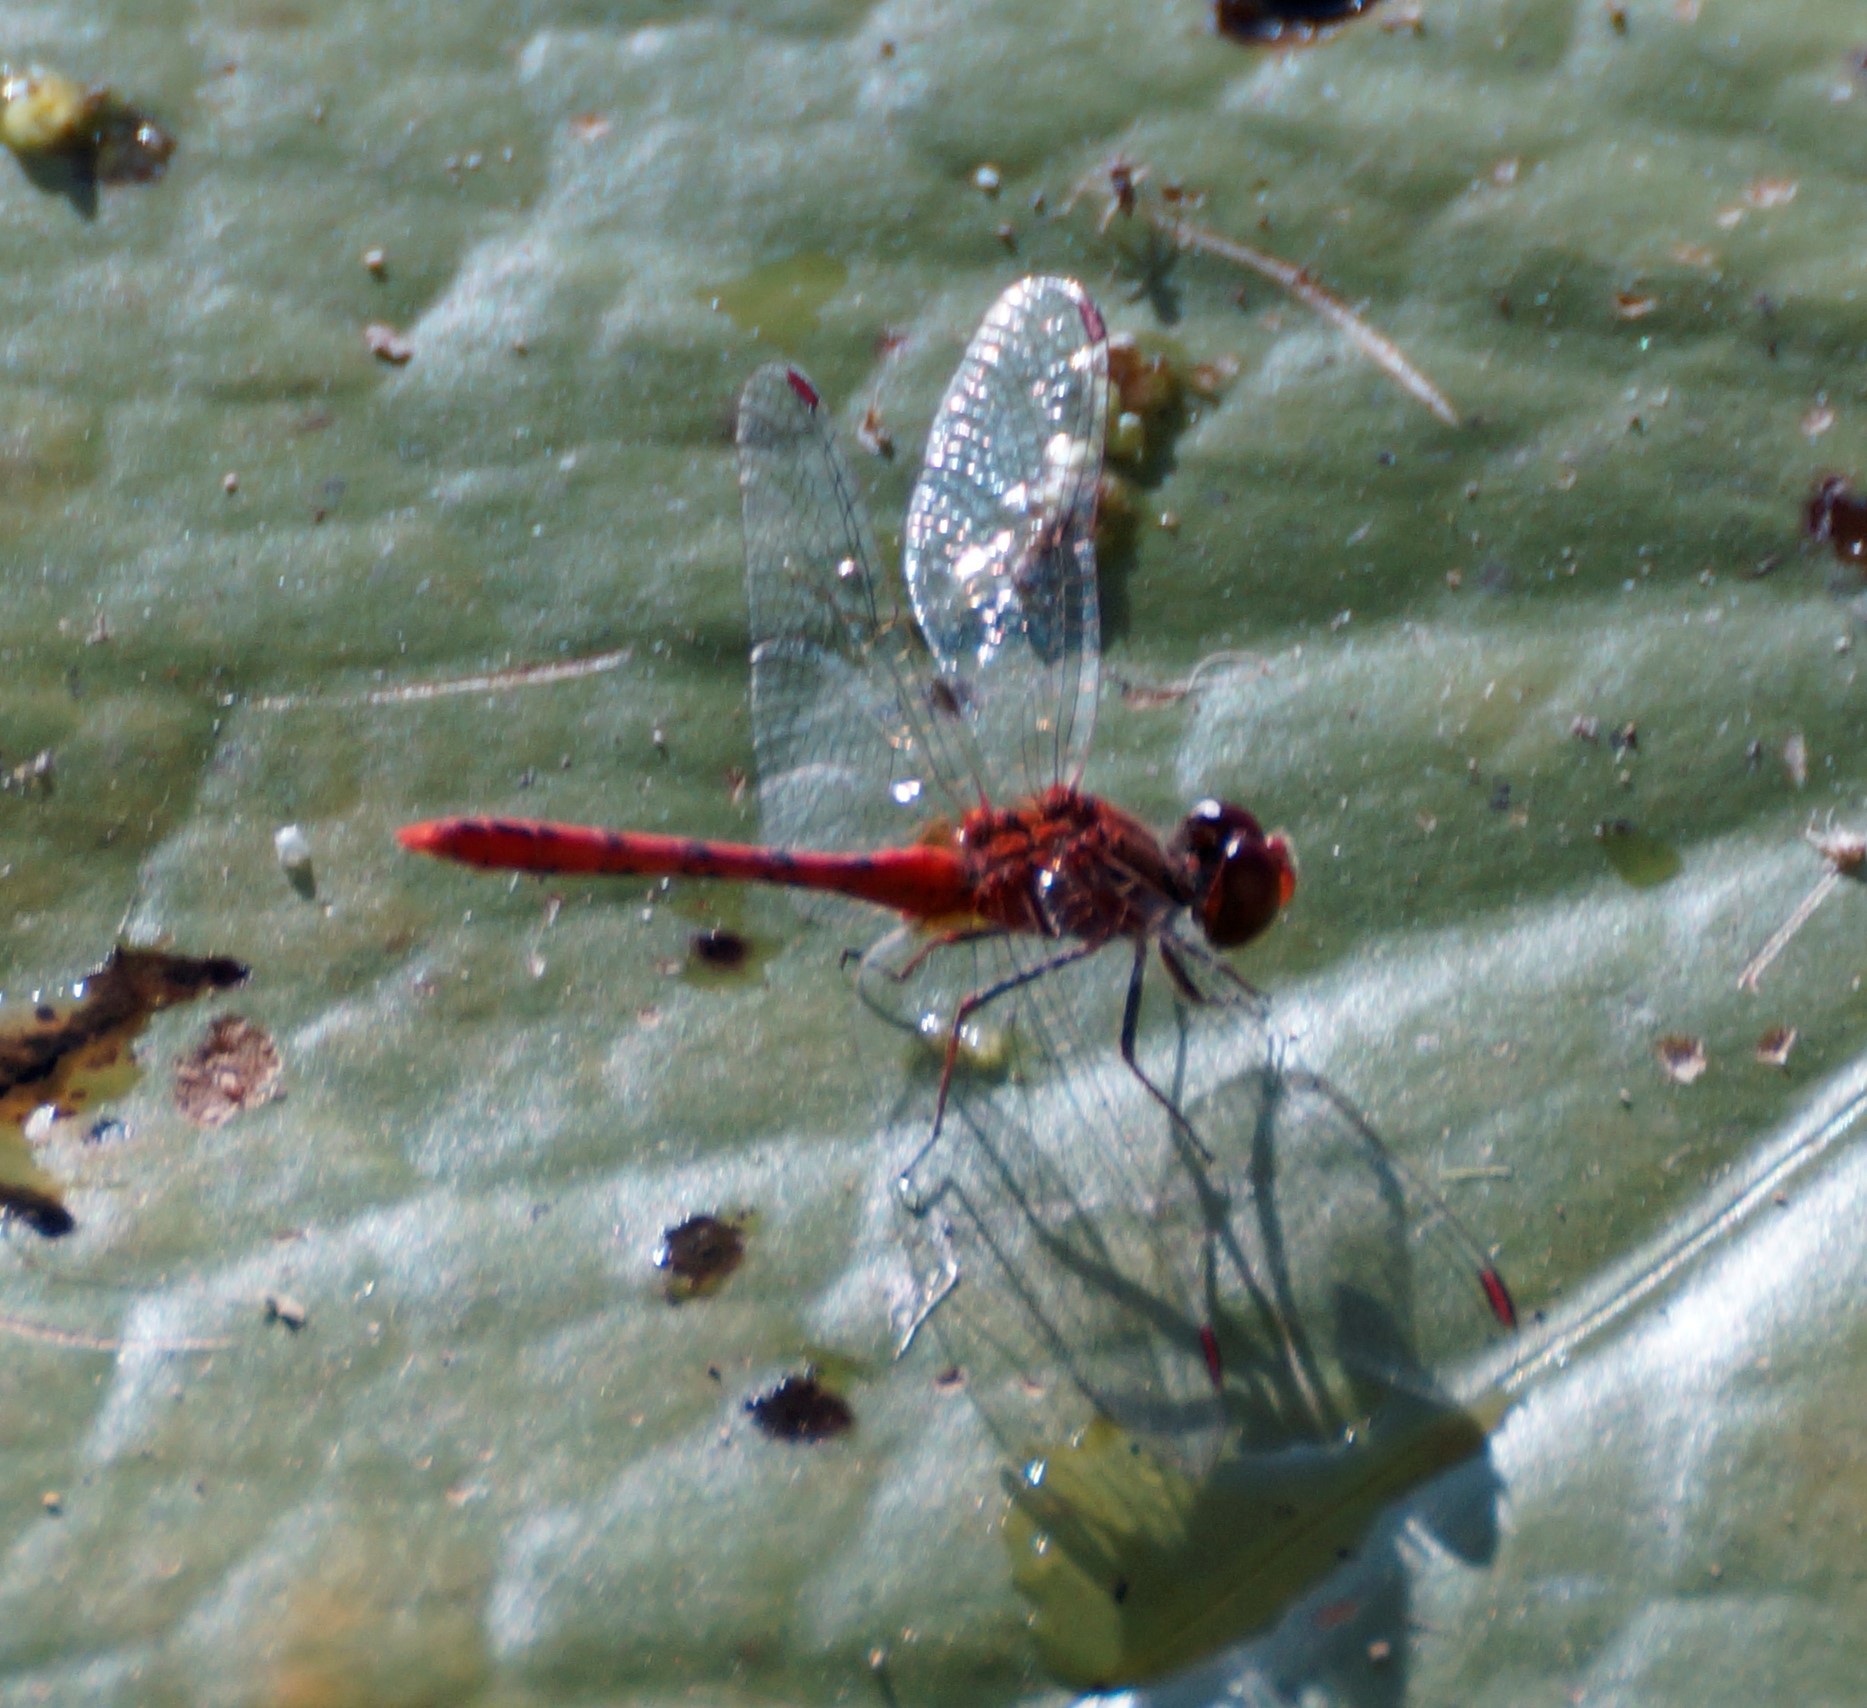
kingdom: Animalia
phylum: Arthropoda
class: Insecta
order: Odonata
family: Libellulidae
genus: Diplacodes
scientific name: Diplacodes bipunctata
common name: Red percher dragonfly
